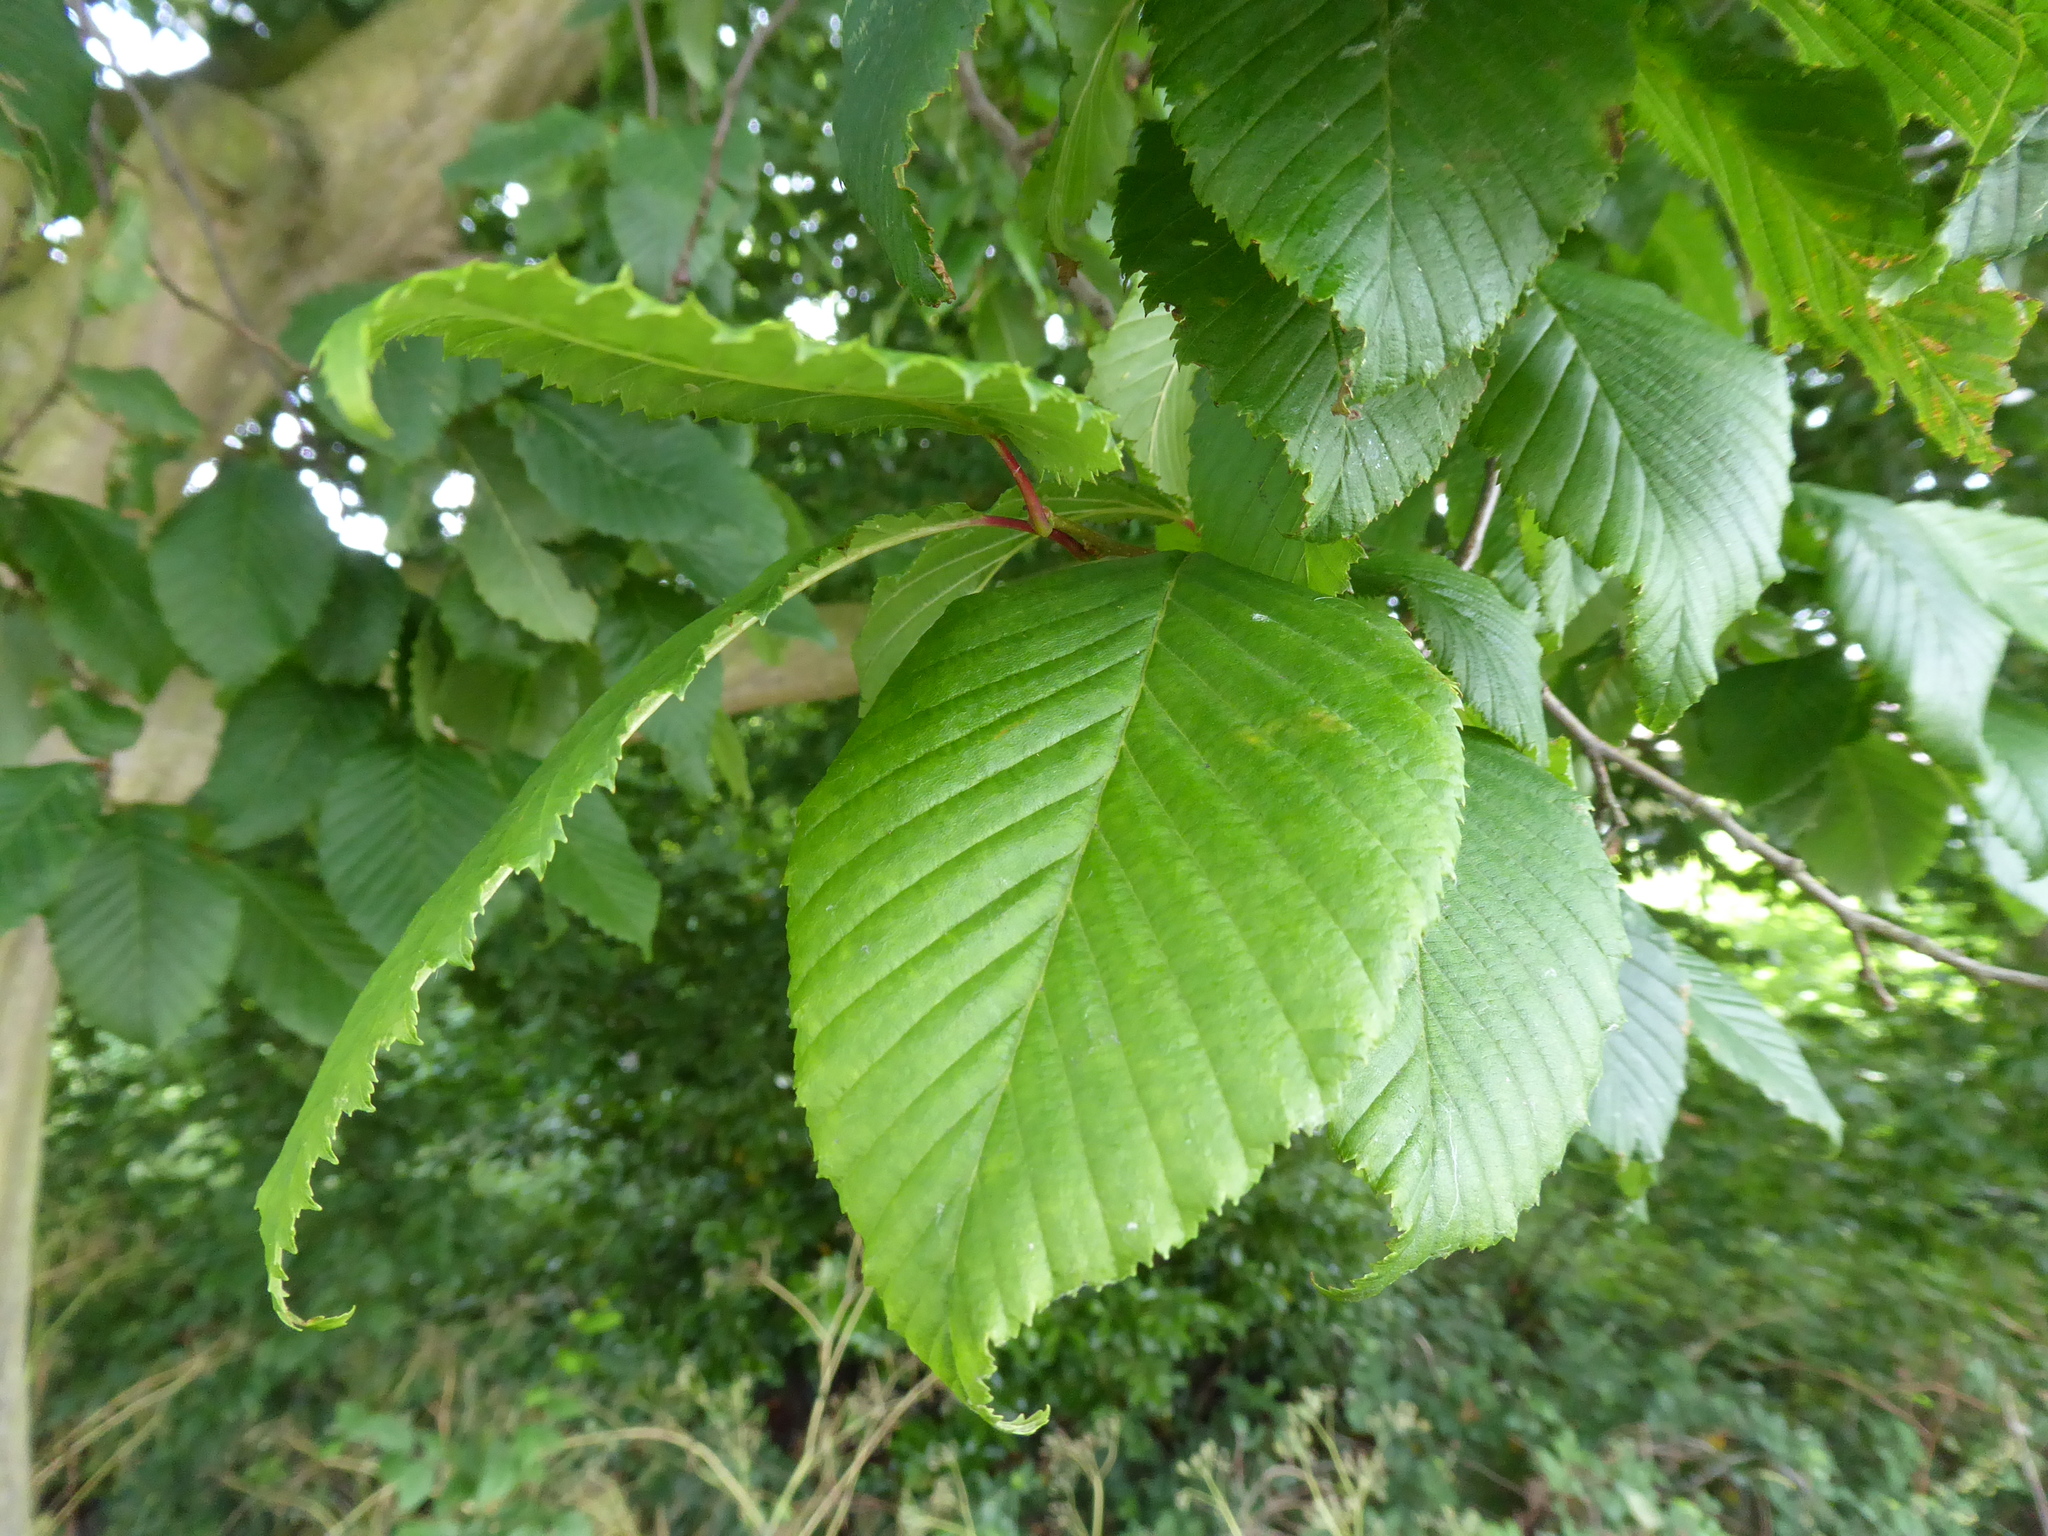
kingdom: Plantae
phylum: Tracheophyta
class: Magnoliopsida
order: Fagales
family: Betulaceae
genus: Carpinus
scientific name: Carpinus betulus
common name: Hornbeam
